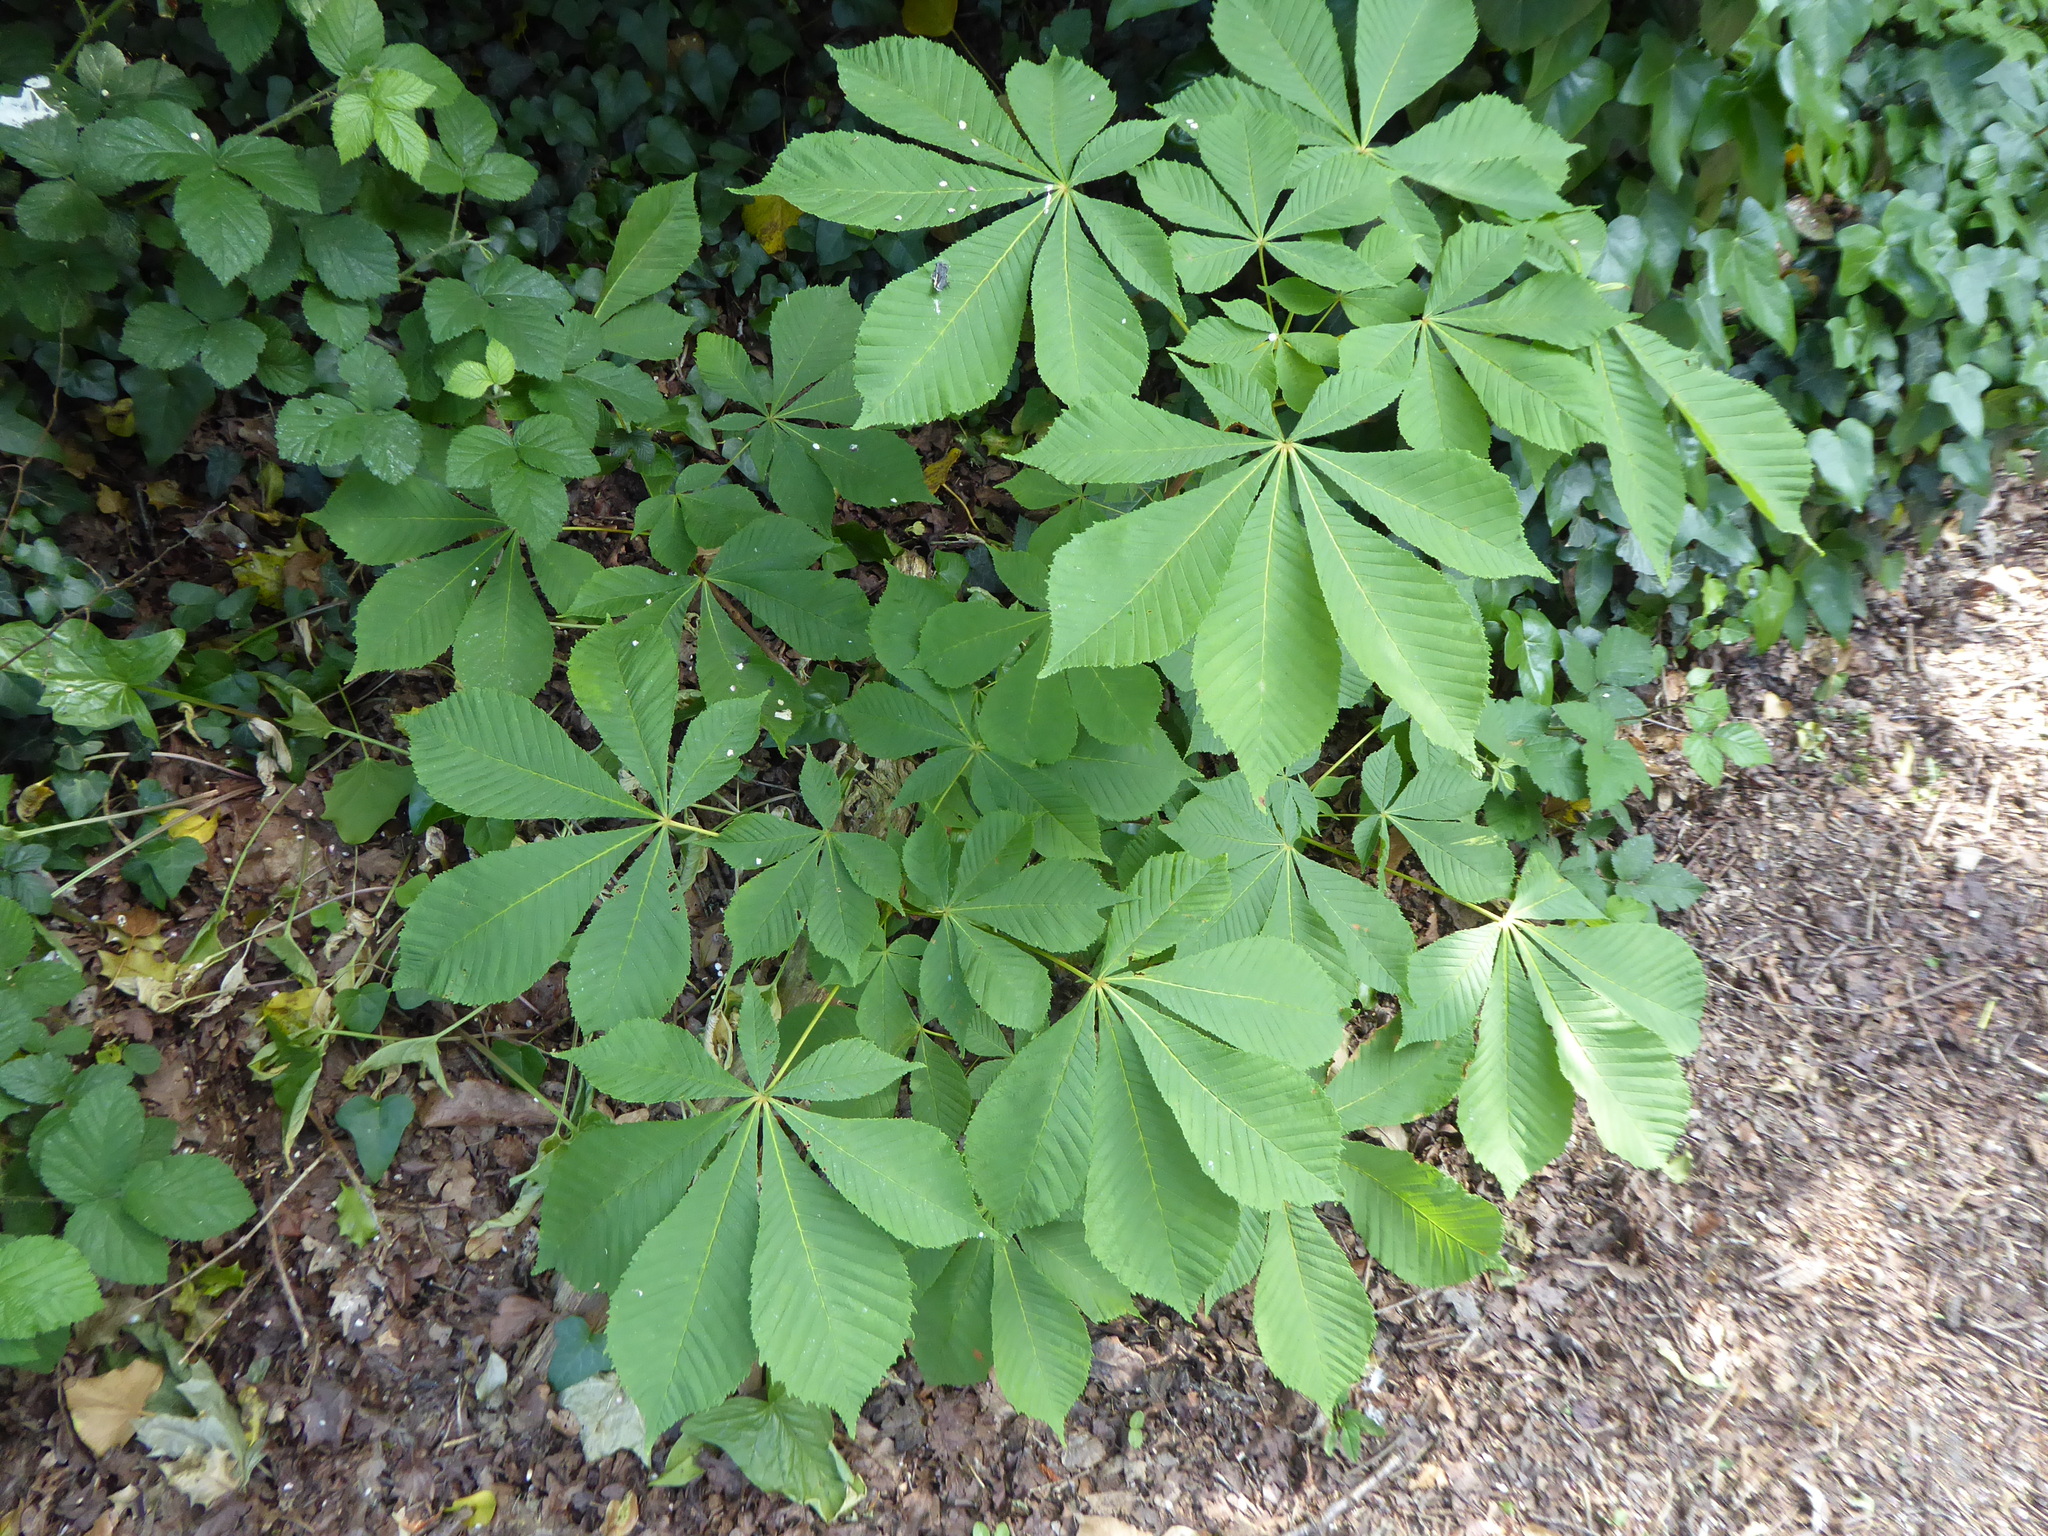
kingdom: Plantae
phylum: Tracheophyta
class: Magnoliopsida
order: Sapindales
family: Sapindaceae
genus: Aesculus
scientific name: Aesculus hippocastanum
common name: Horse-chestnut
